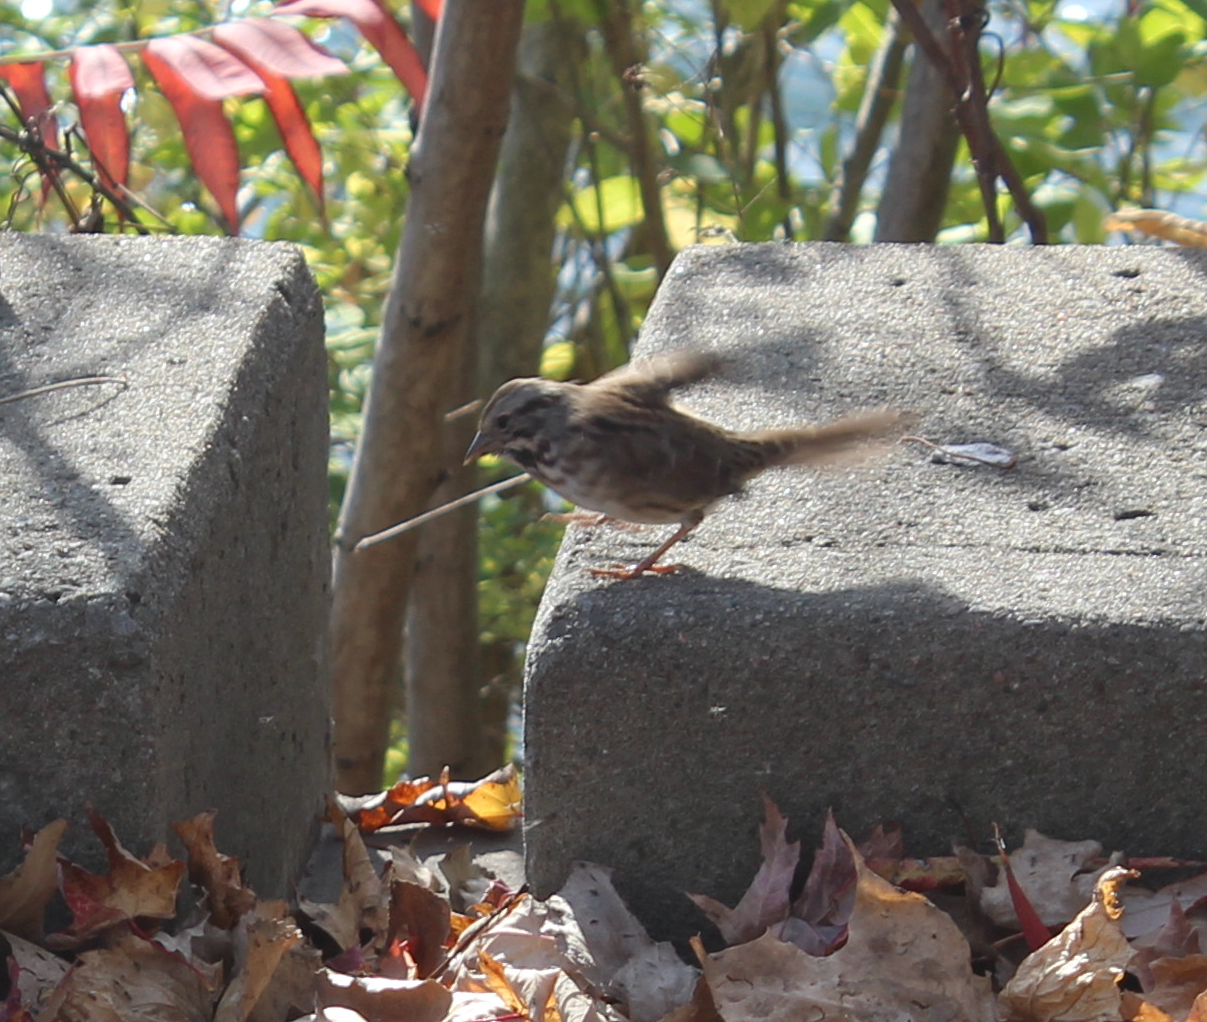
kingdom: Animalia
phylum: Chordata
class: Aves
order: Passeriformes
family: Passerellidae
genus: Melospiza
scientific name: Melospiza melodia
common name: Song sparrow
